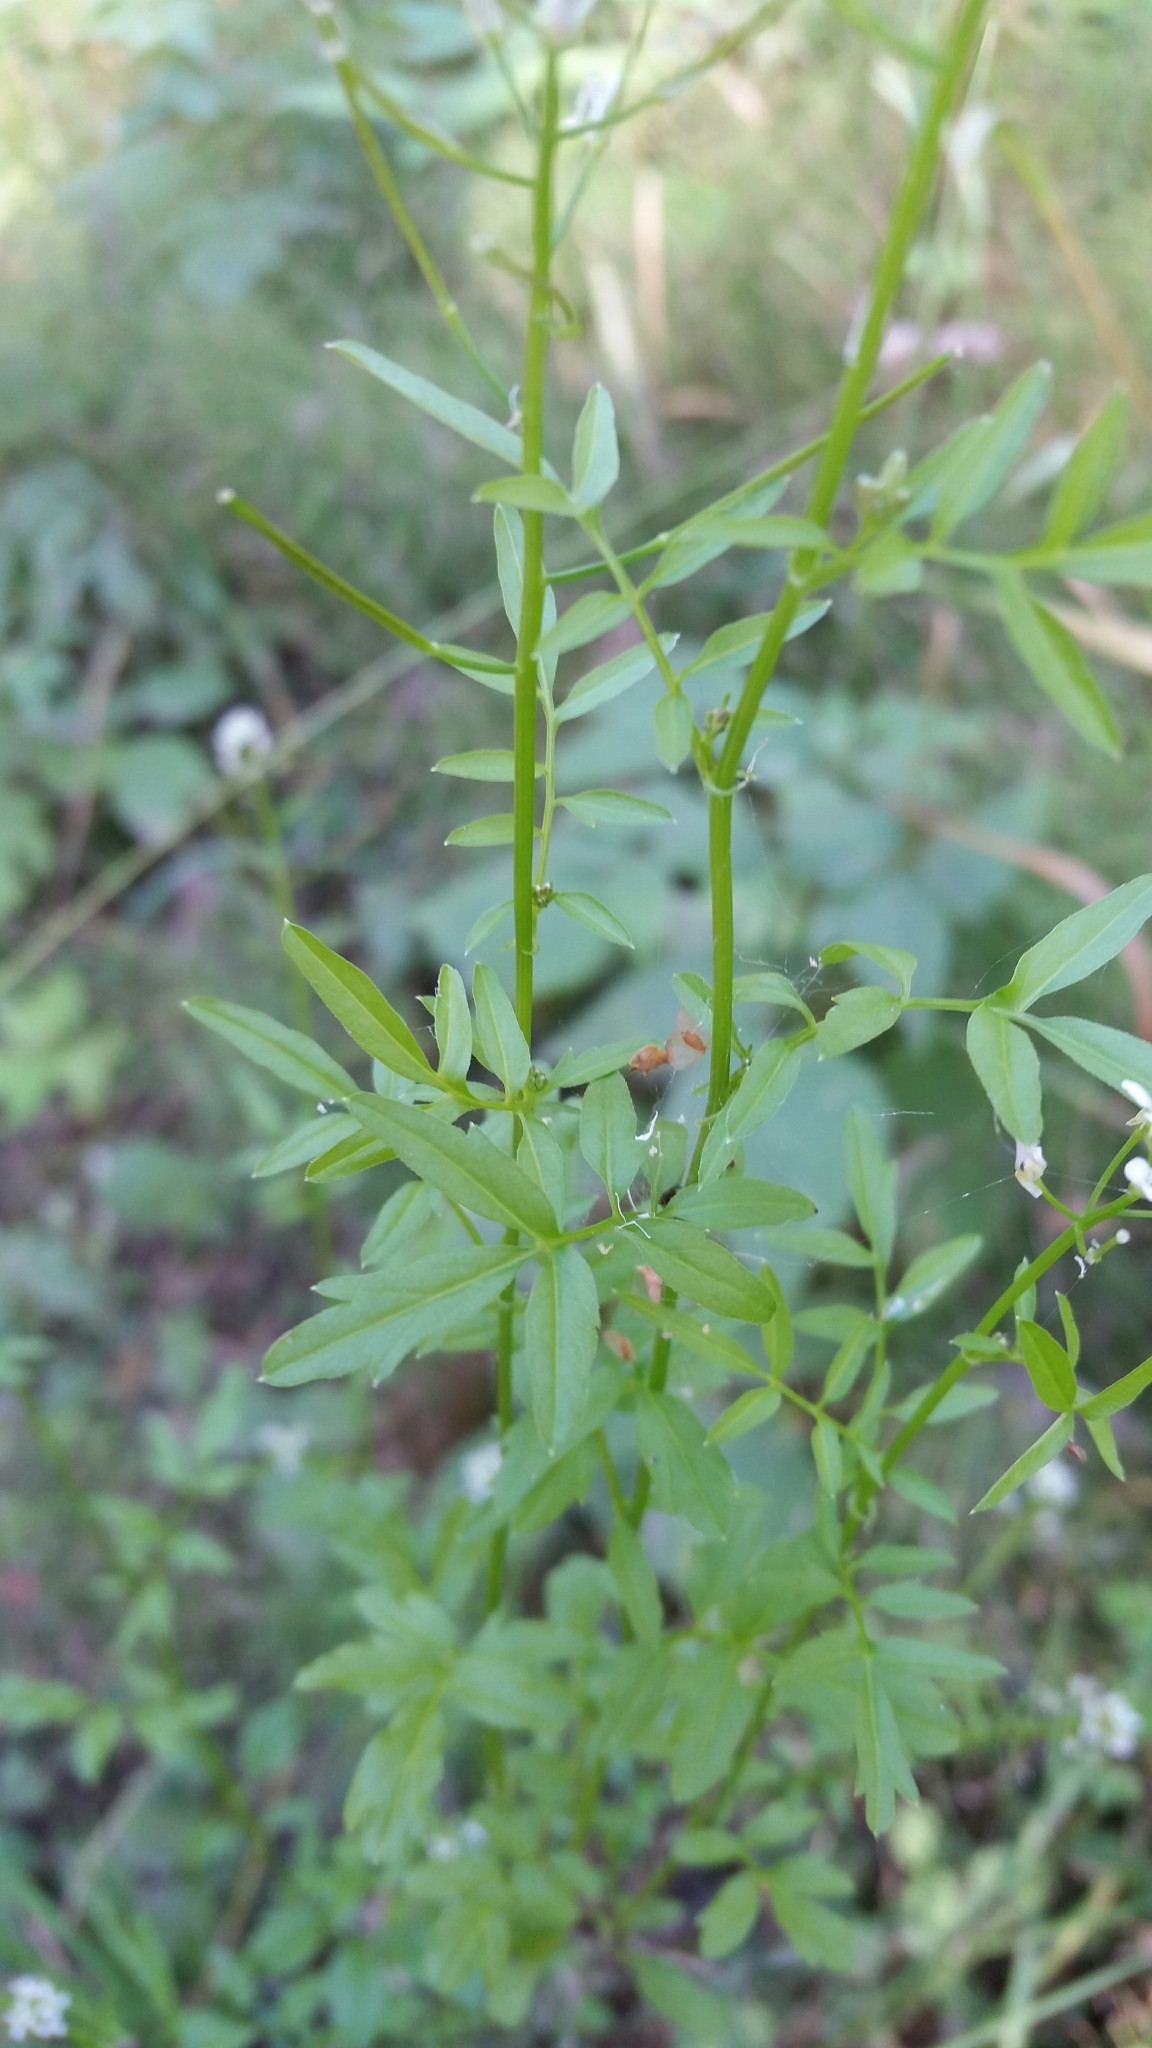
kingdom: Plantae
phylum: Tracheophyta
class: Magnoliopsida
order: Brassicales
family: Brassicaceae
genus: Cardamine
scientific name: Cardamine impatiens
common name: Narrow-leaved bitter-cress
